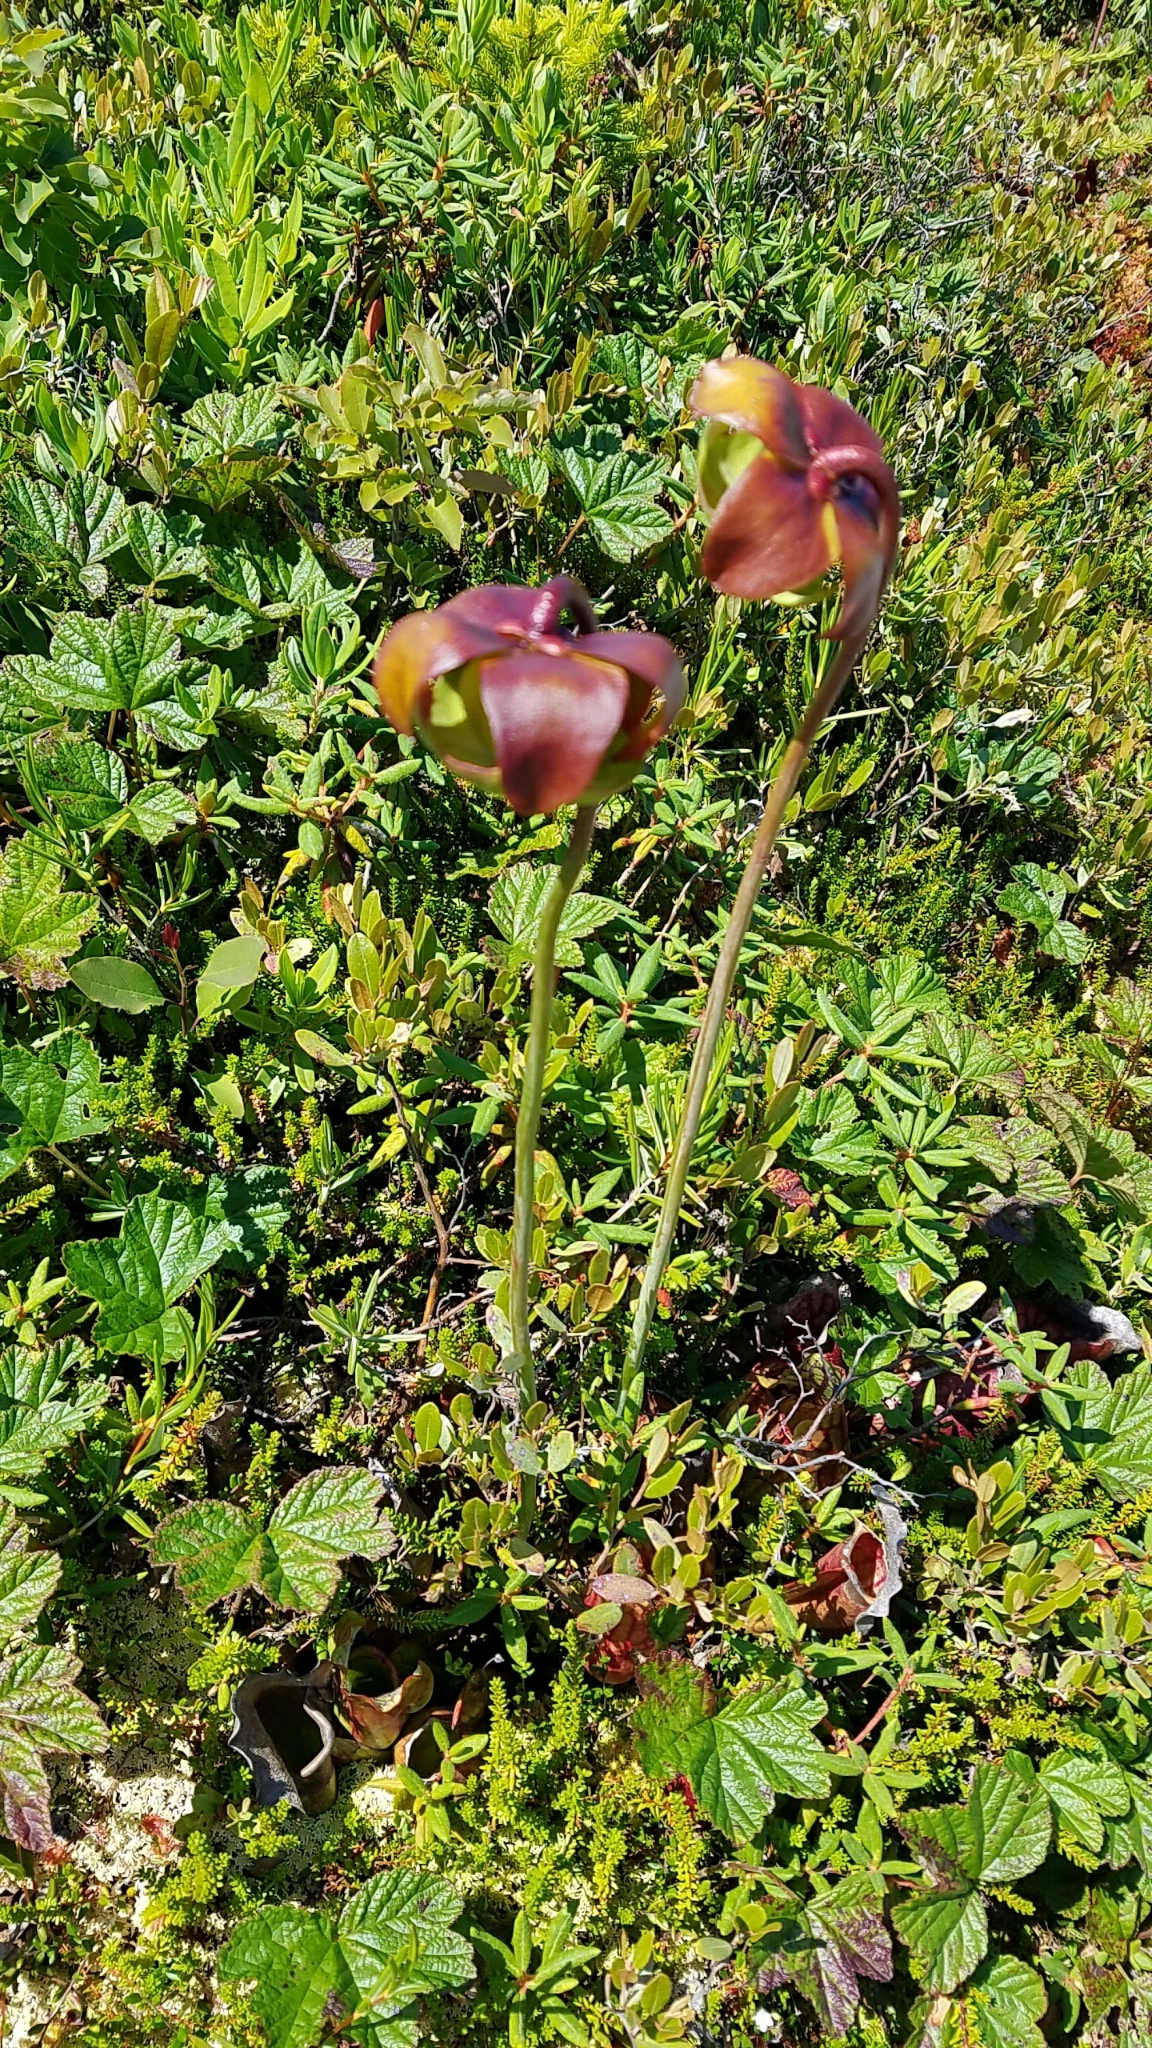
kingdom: Plantae
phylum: Tracheophyta
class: Magnoliopsida
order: Ericales
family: Sarraceniaceae
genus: Sarracenia
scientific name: Sarracenia purpurea
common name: Pitcherplant
